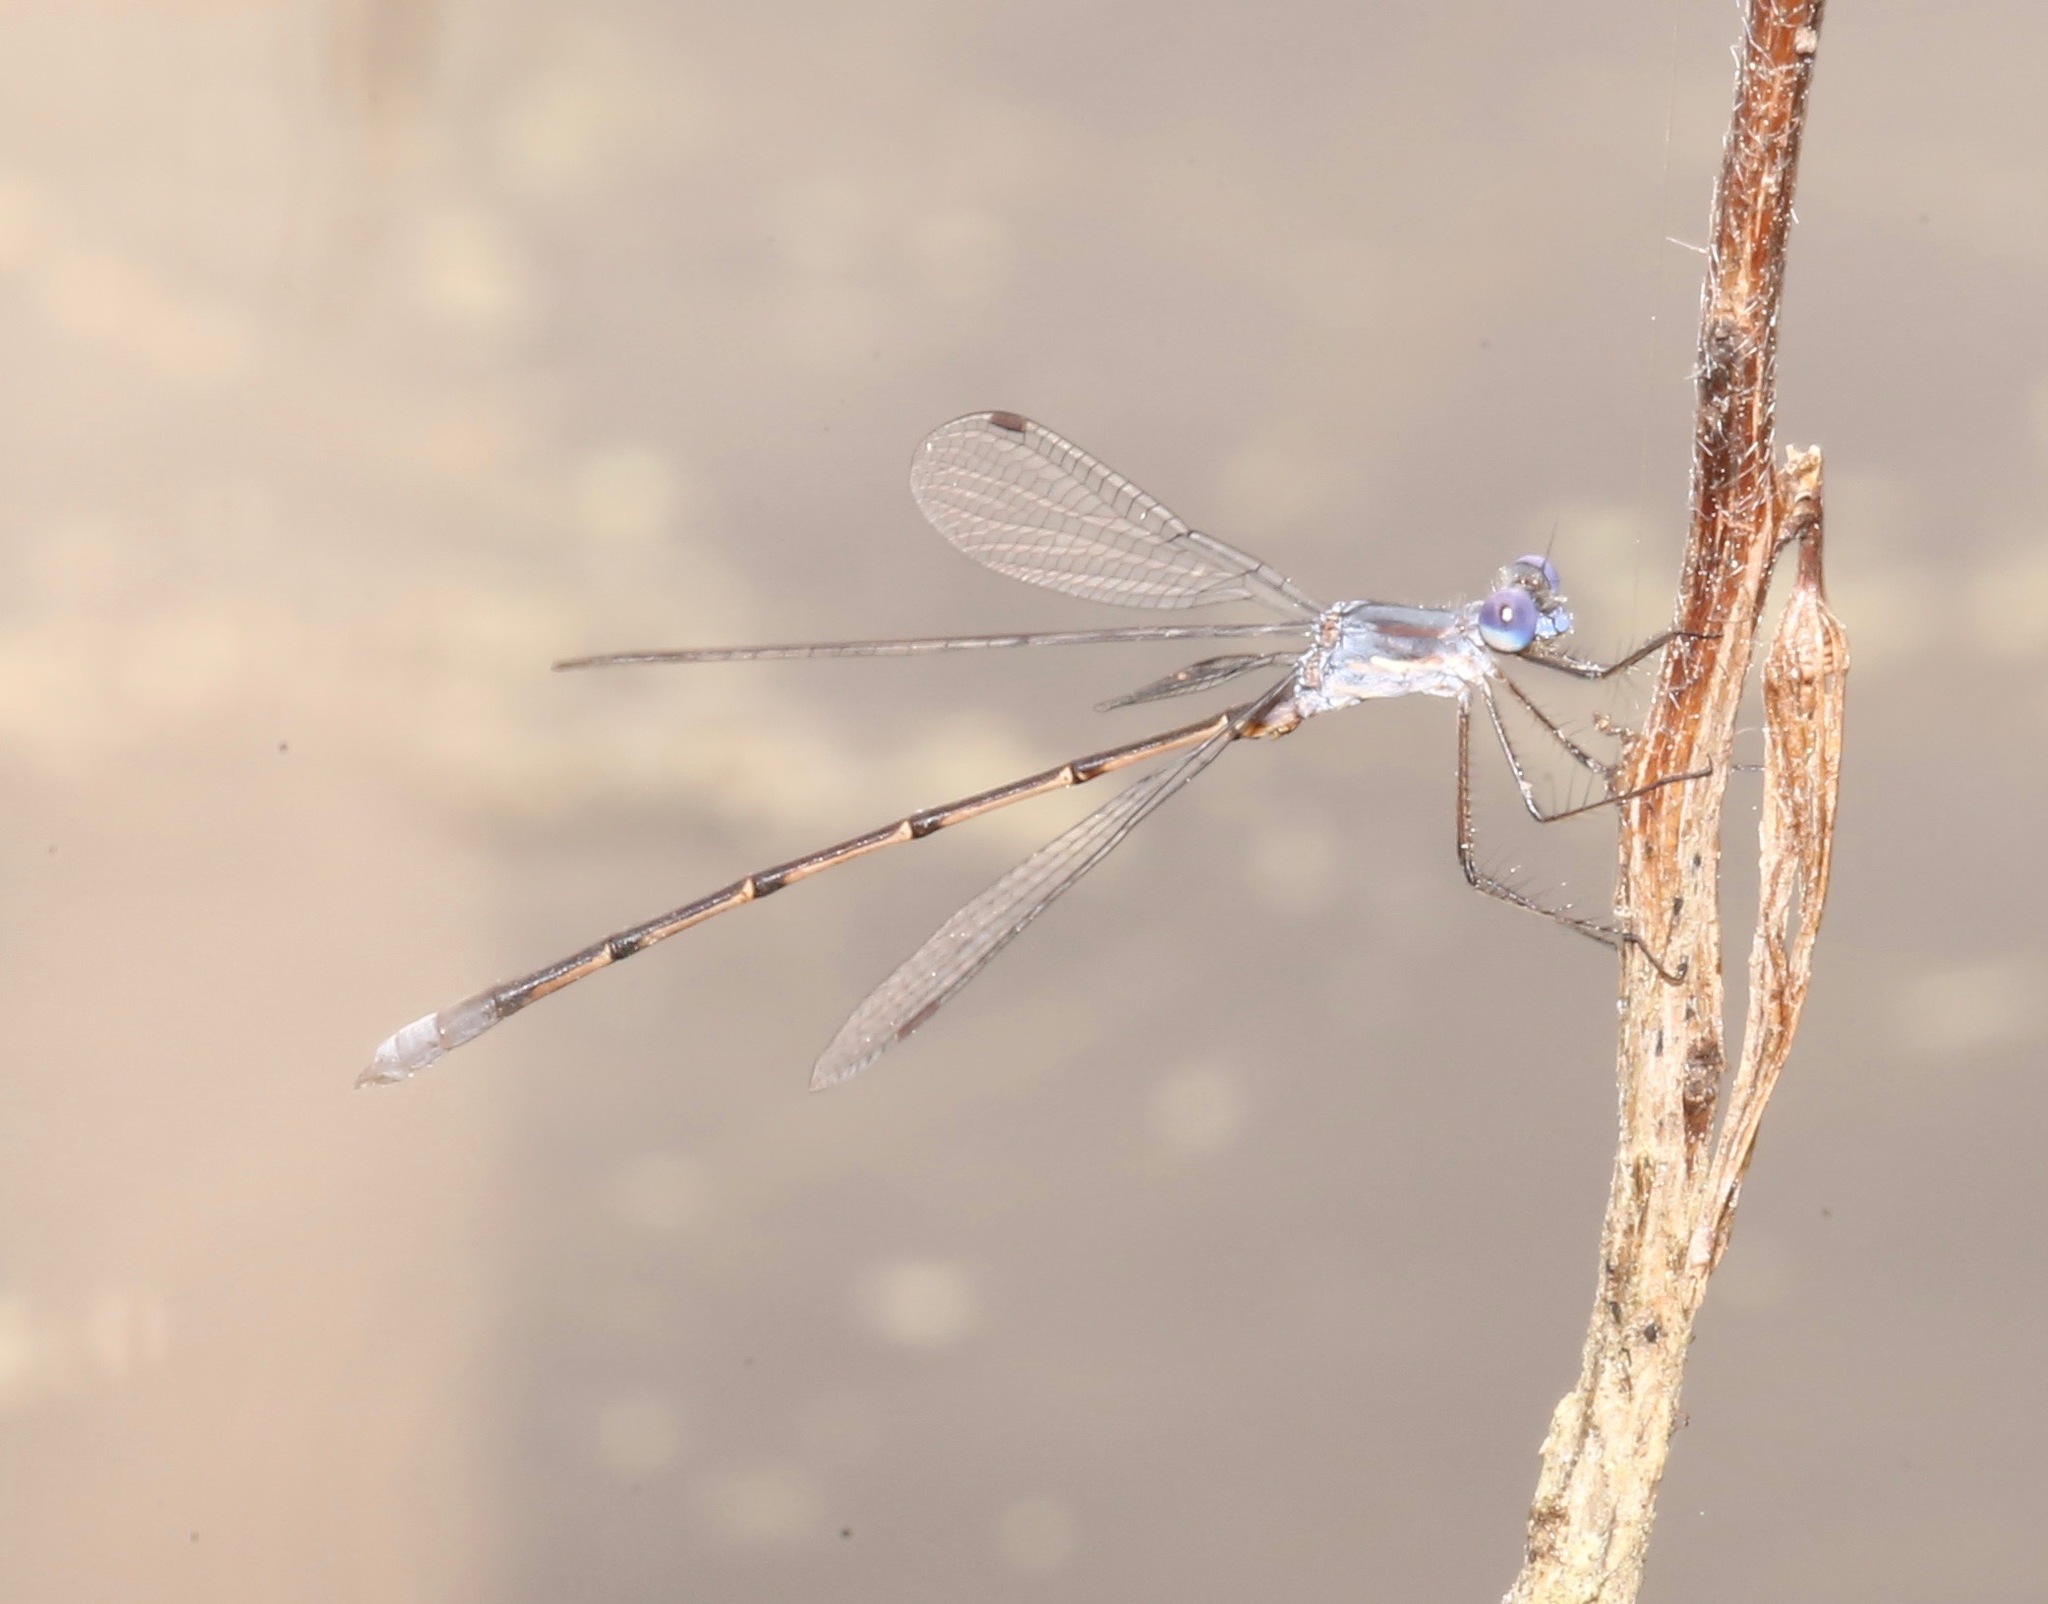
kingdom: Animalia
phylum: Arthropoda
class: Insecta
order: Odonata
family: Lestidae
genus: Lestes
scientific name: Lestes vidua
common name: Carolina spreadwing
